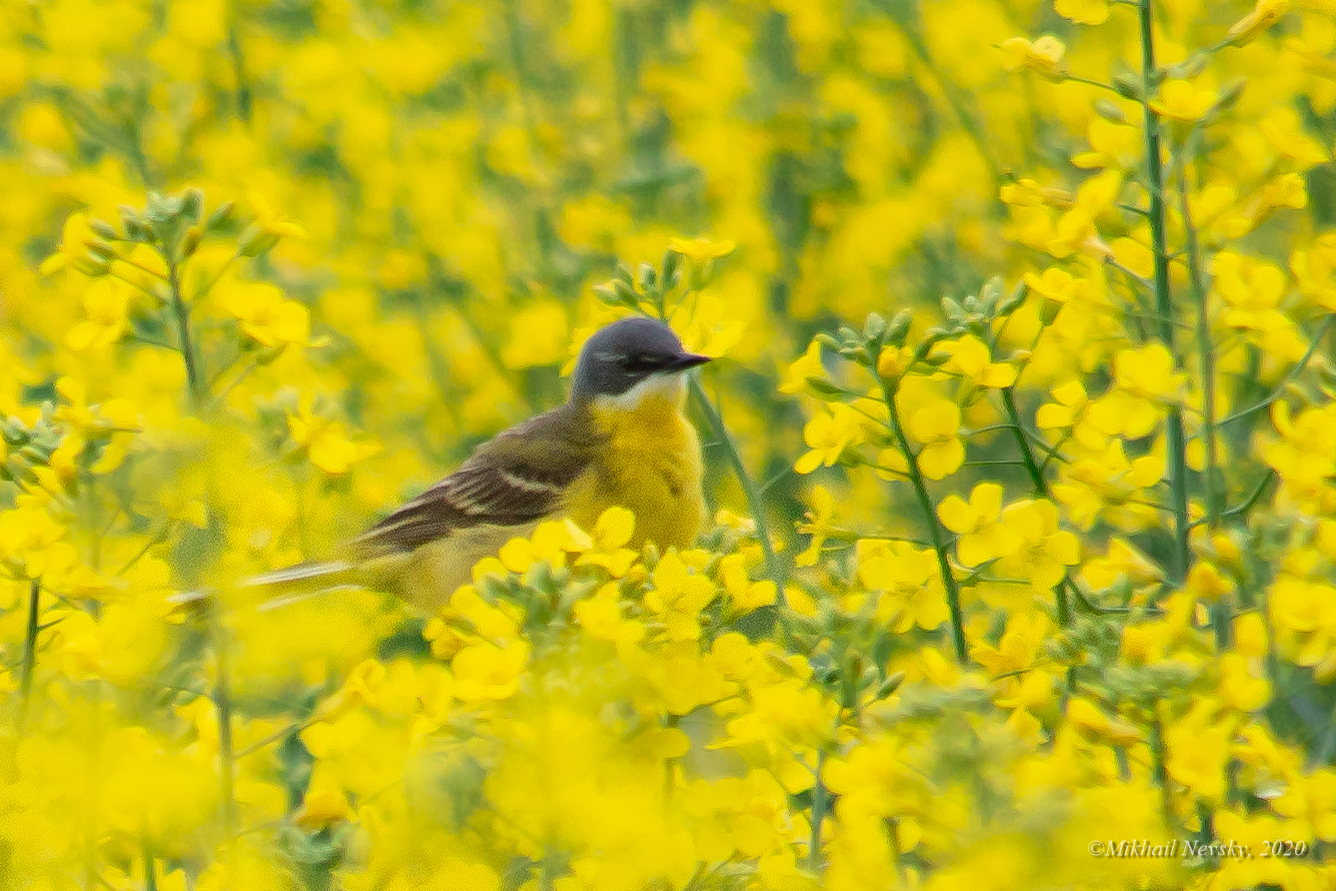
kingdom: Animalia
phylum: Chordata
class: Aves
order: Passeriformes
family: Motacillidae
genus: Motacilla
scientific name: Motacilla flava
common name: Western yellow wagtail
